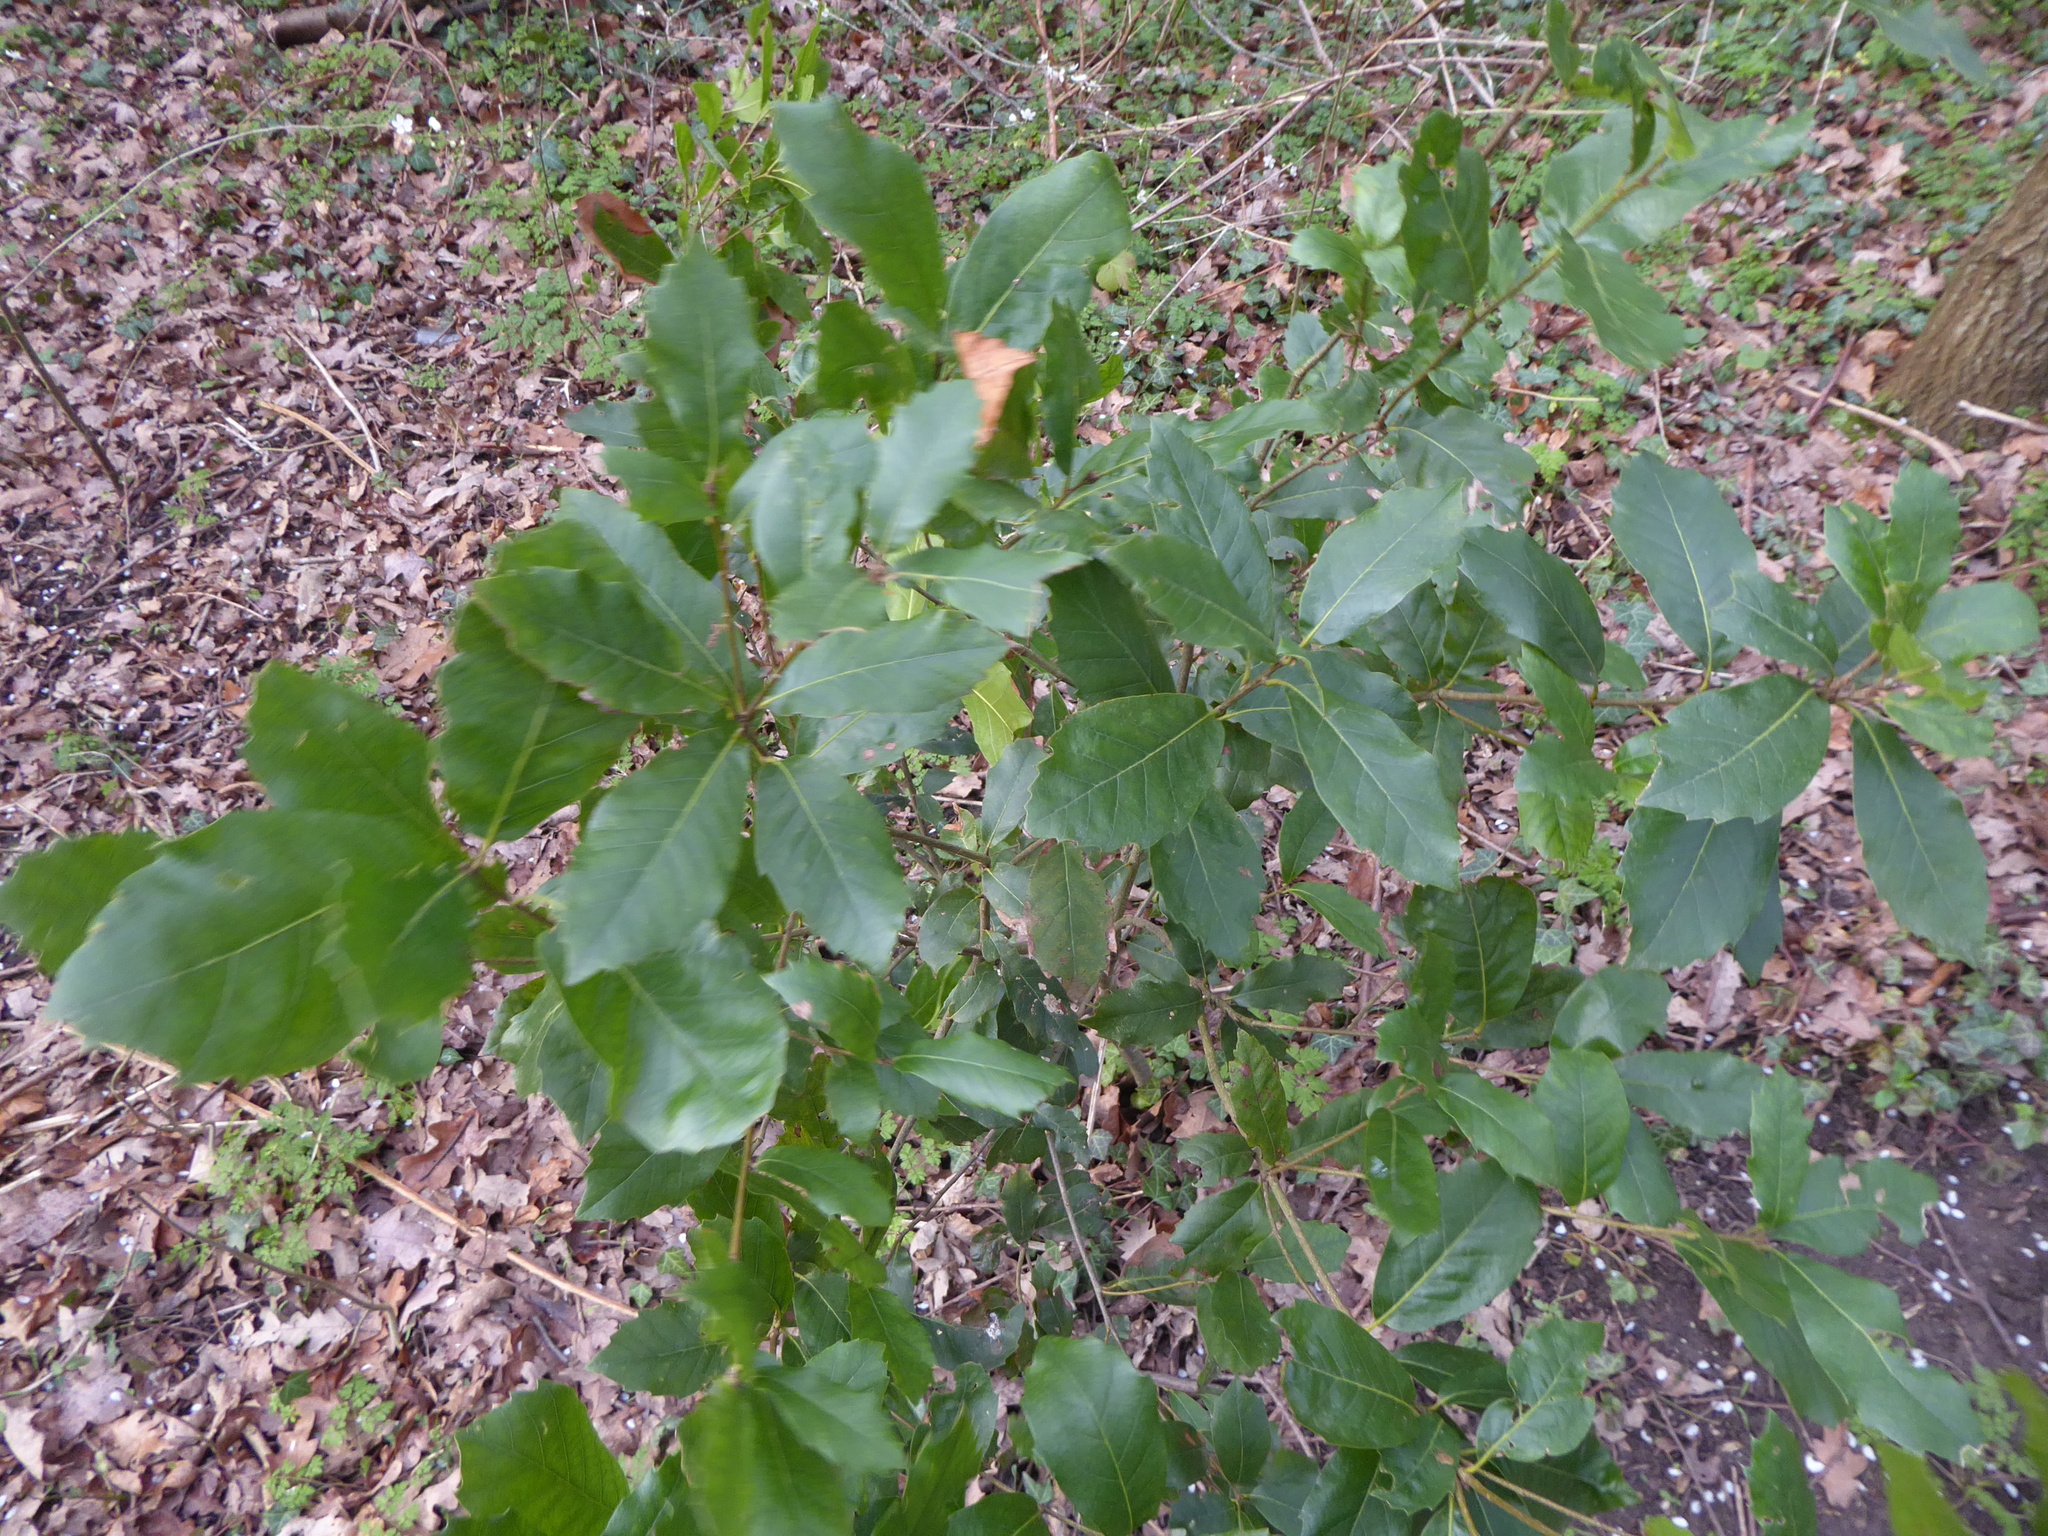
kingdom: Plantae
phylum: Tracheophyta
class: Magnoliopsida
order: Fagales
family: Fagaceae
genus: Quercus
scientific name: Quercus ilex
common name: Evergreen oak
